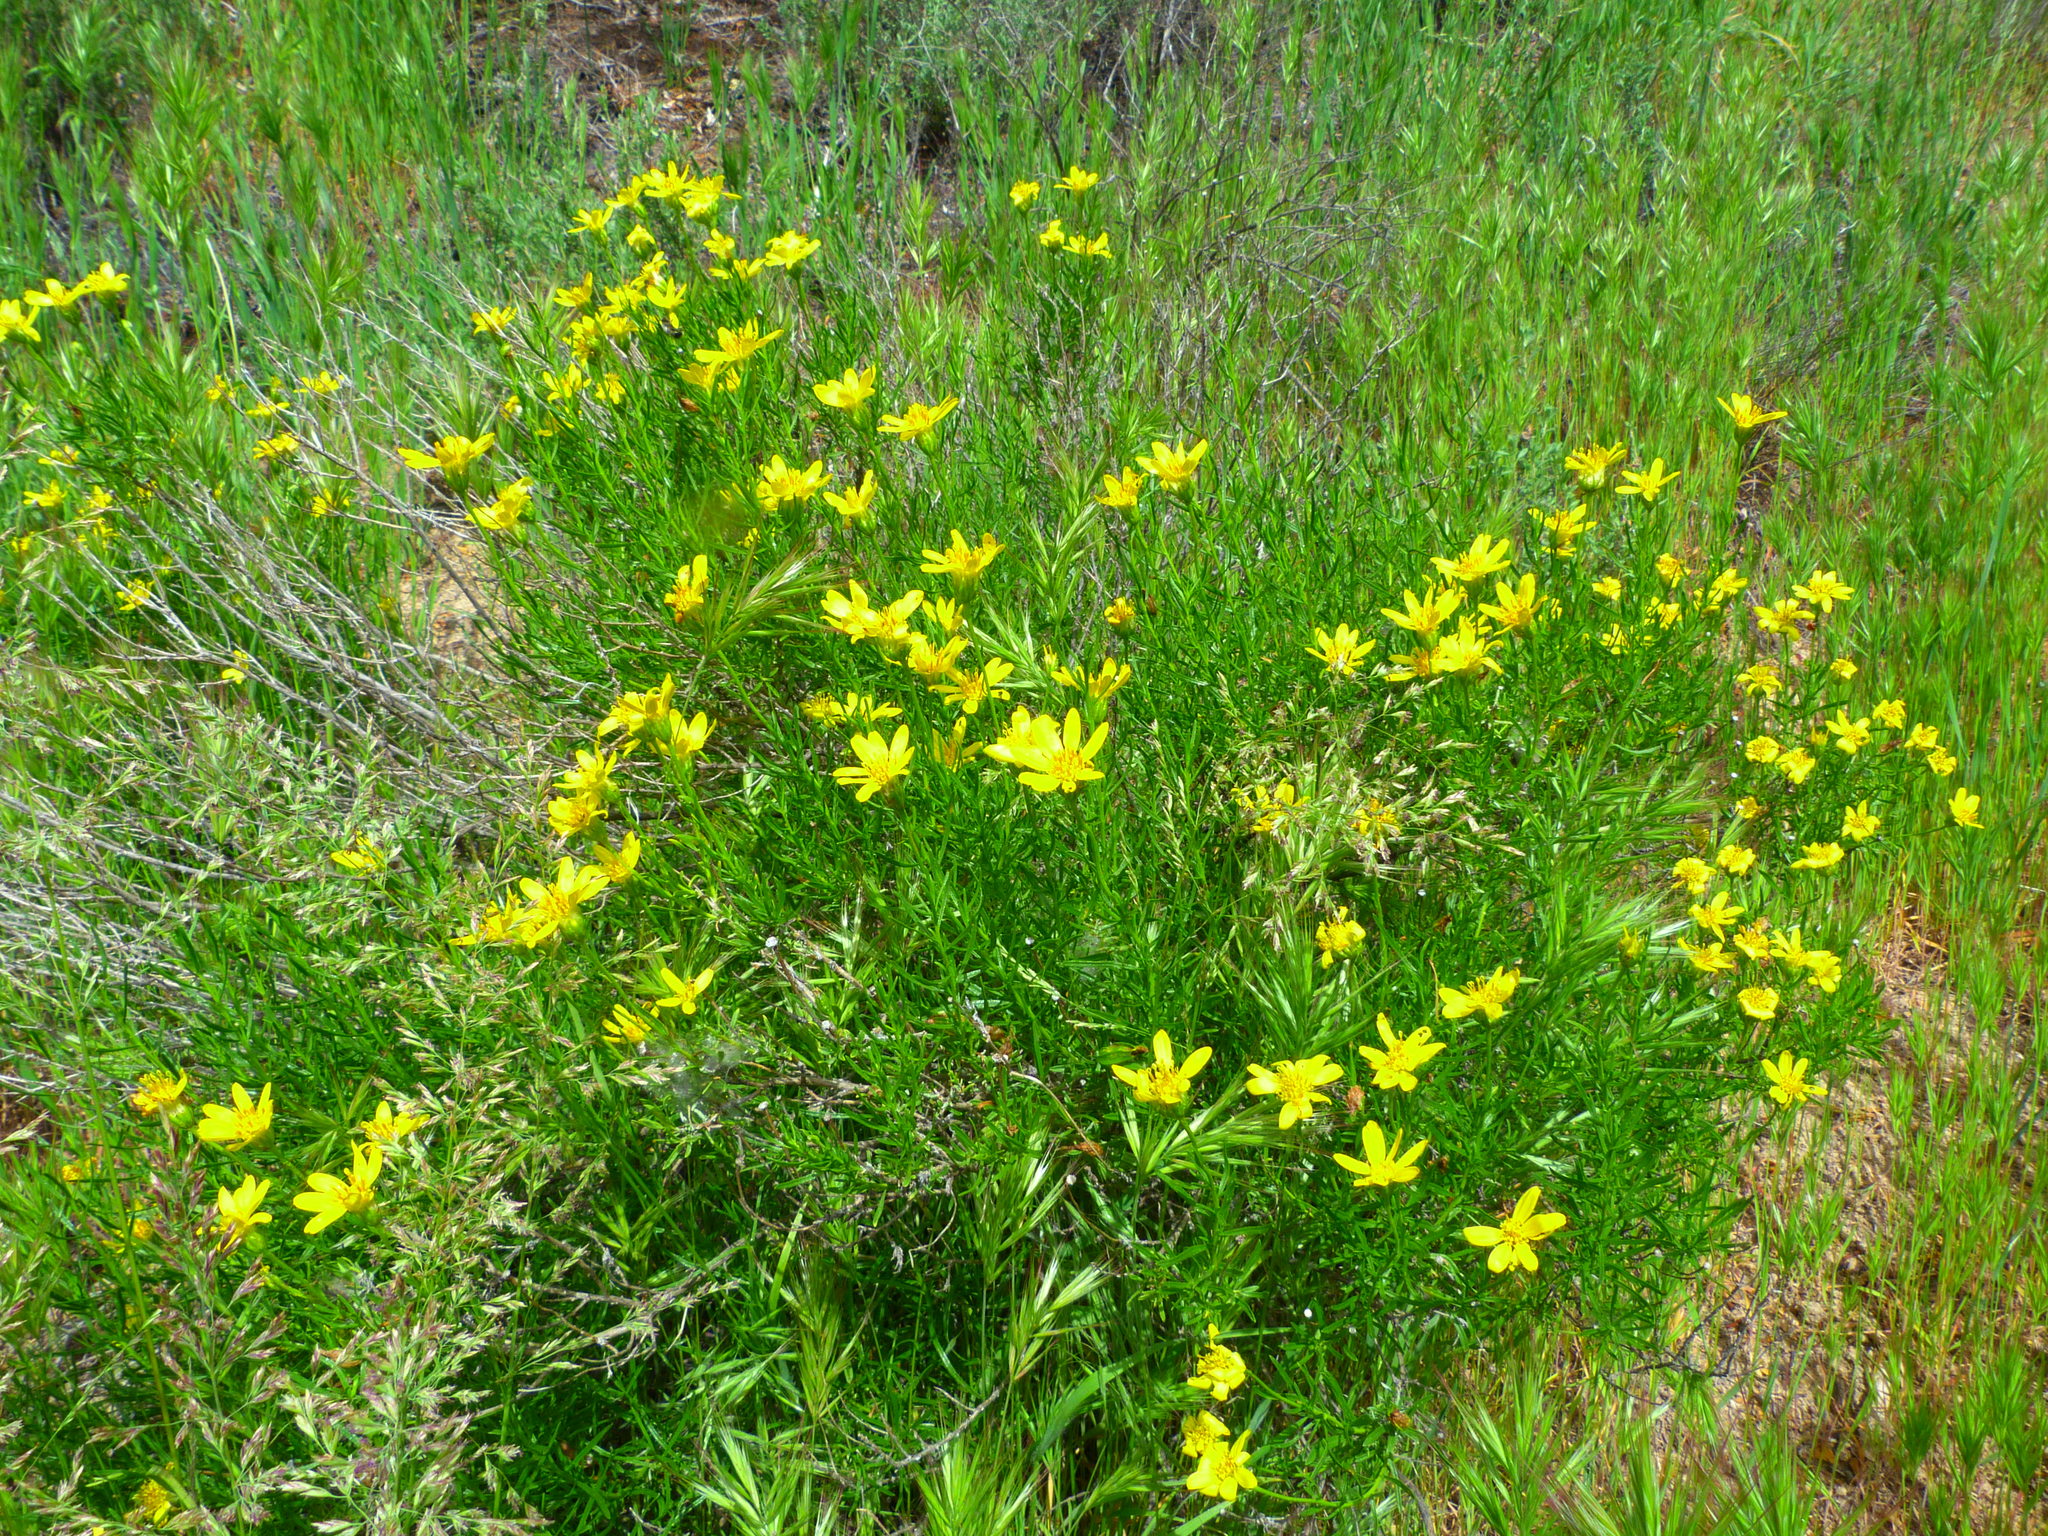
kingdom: Plantae
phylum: Tracheophyta
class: Magnoliopsida
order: Asterales
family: Asteraceae
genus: Ericameria
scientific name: Ericameria linearifolia
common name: Interior goldenbush
